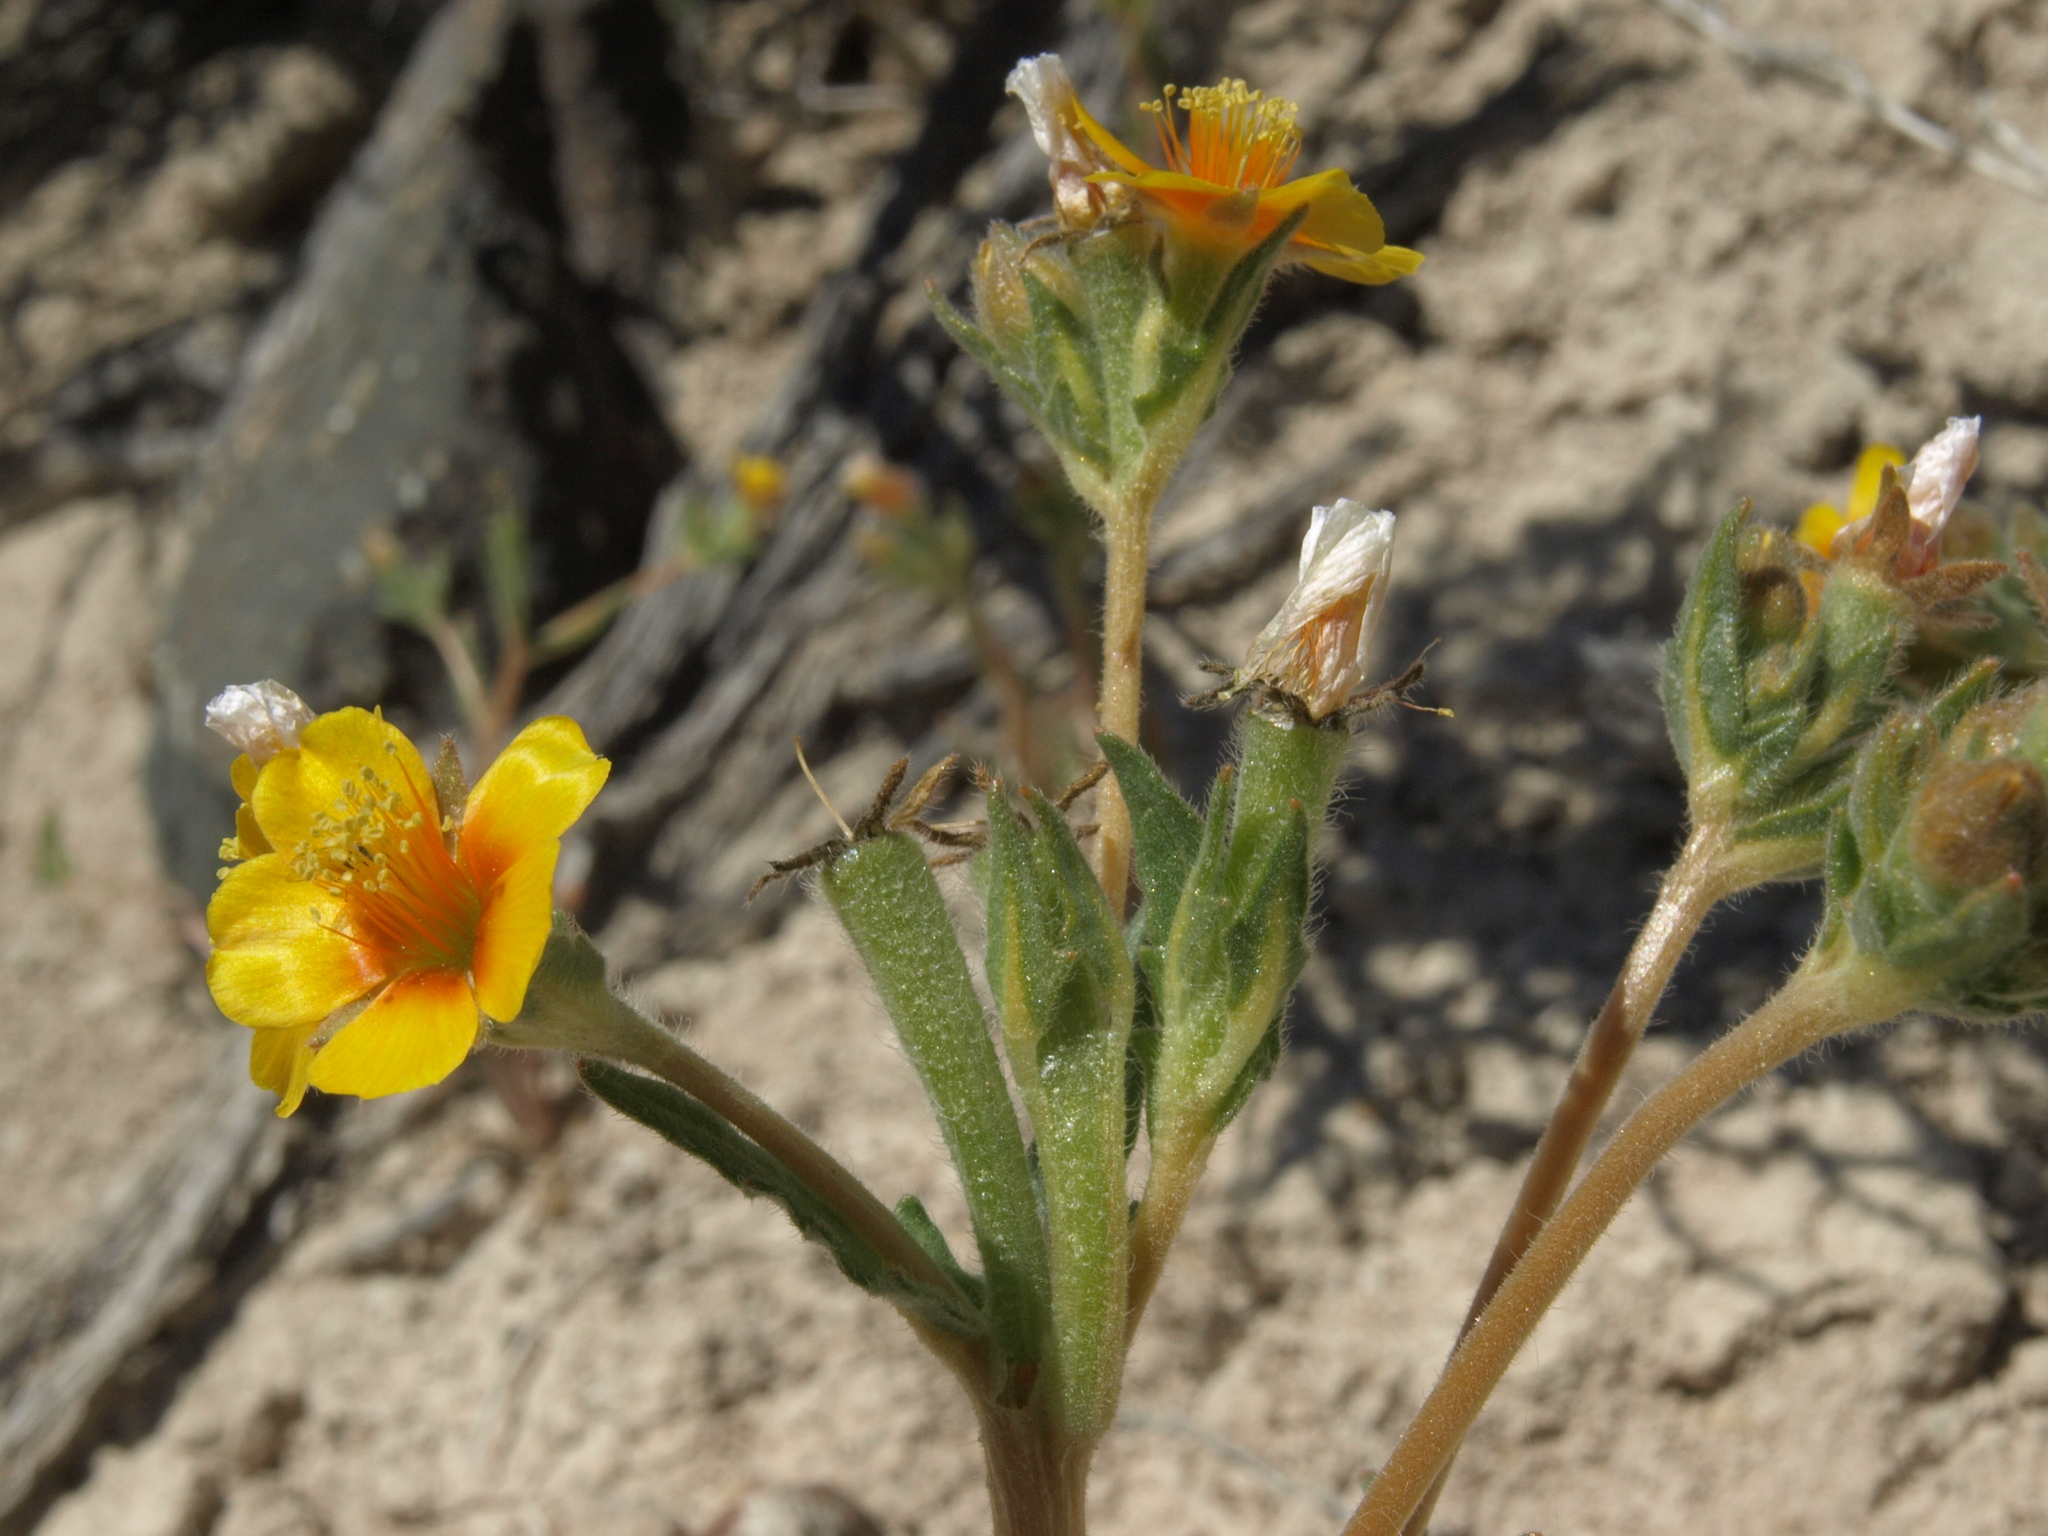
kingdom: Plantae
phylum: Tracheophyta
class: Magnoliopsida
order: Cornales
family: Loasaceae
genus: Mentzelia
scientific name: Mentzelia veatchiana
